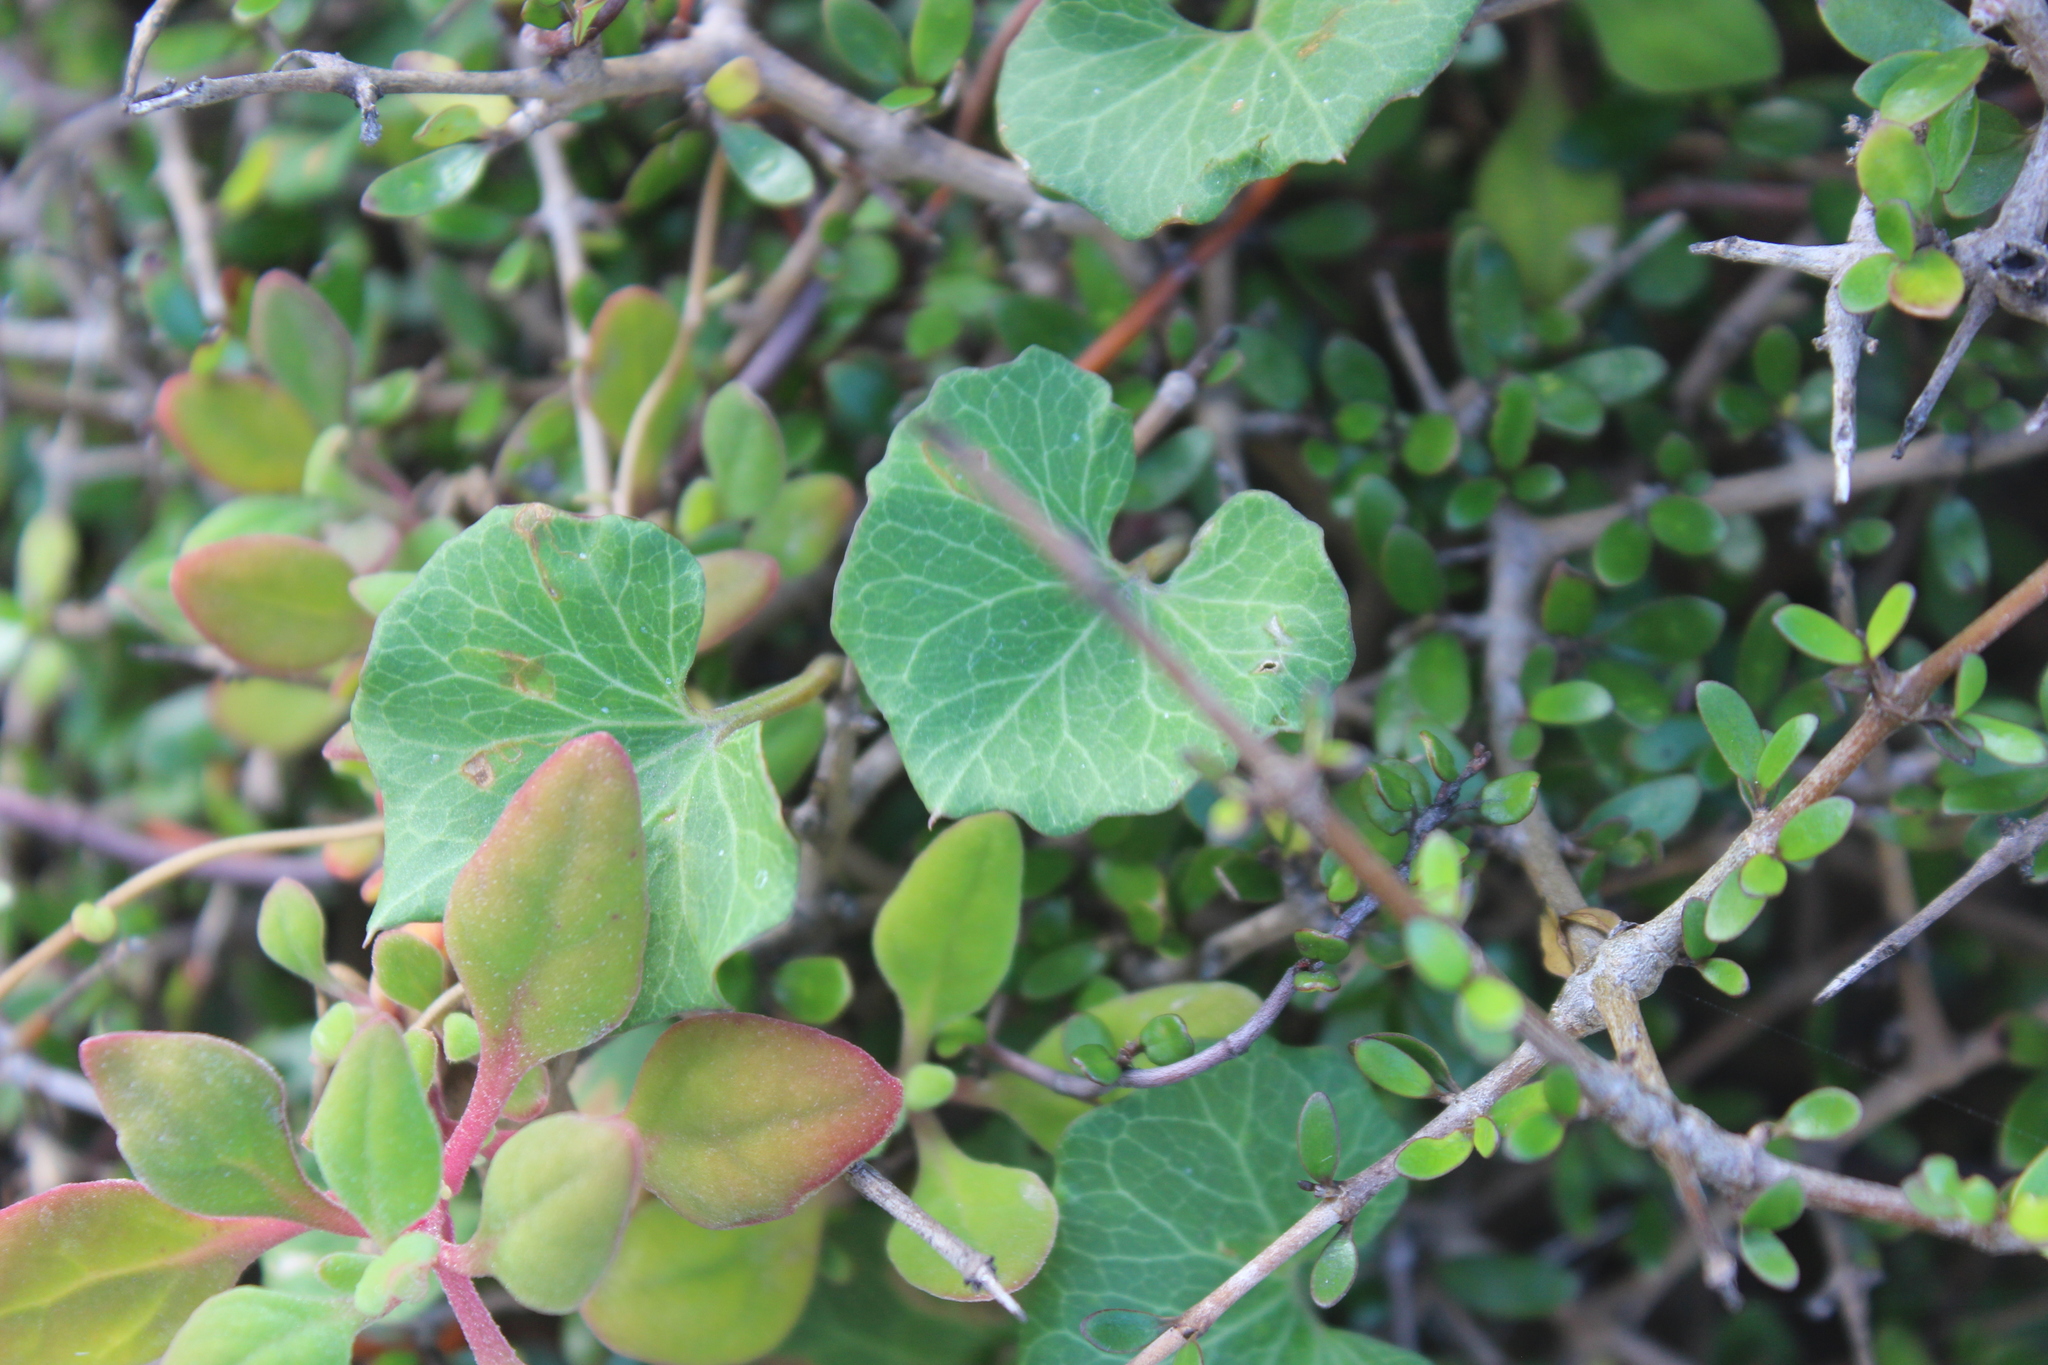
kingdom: Plantae
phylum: Tracheophyta
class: Magnoliopsida
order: Solanales
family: Convolvulaceae
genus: Calystegia
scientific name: Calystegia
